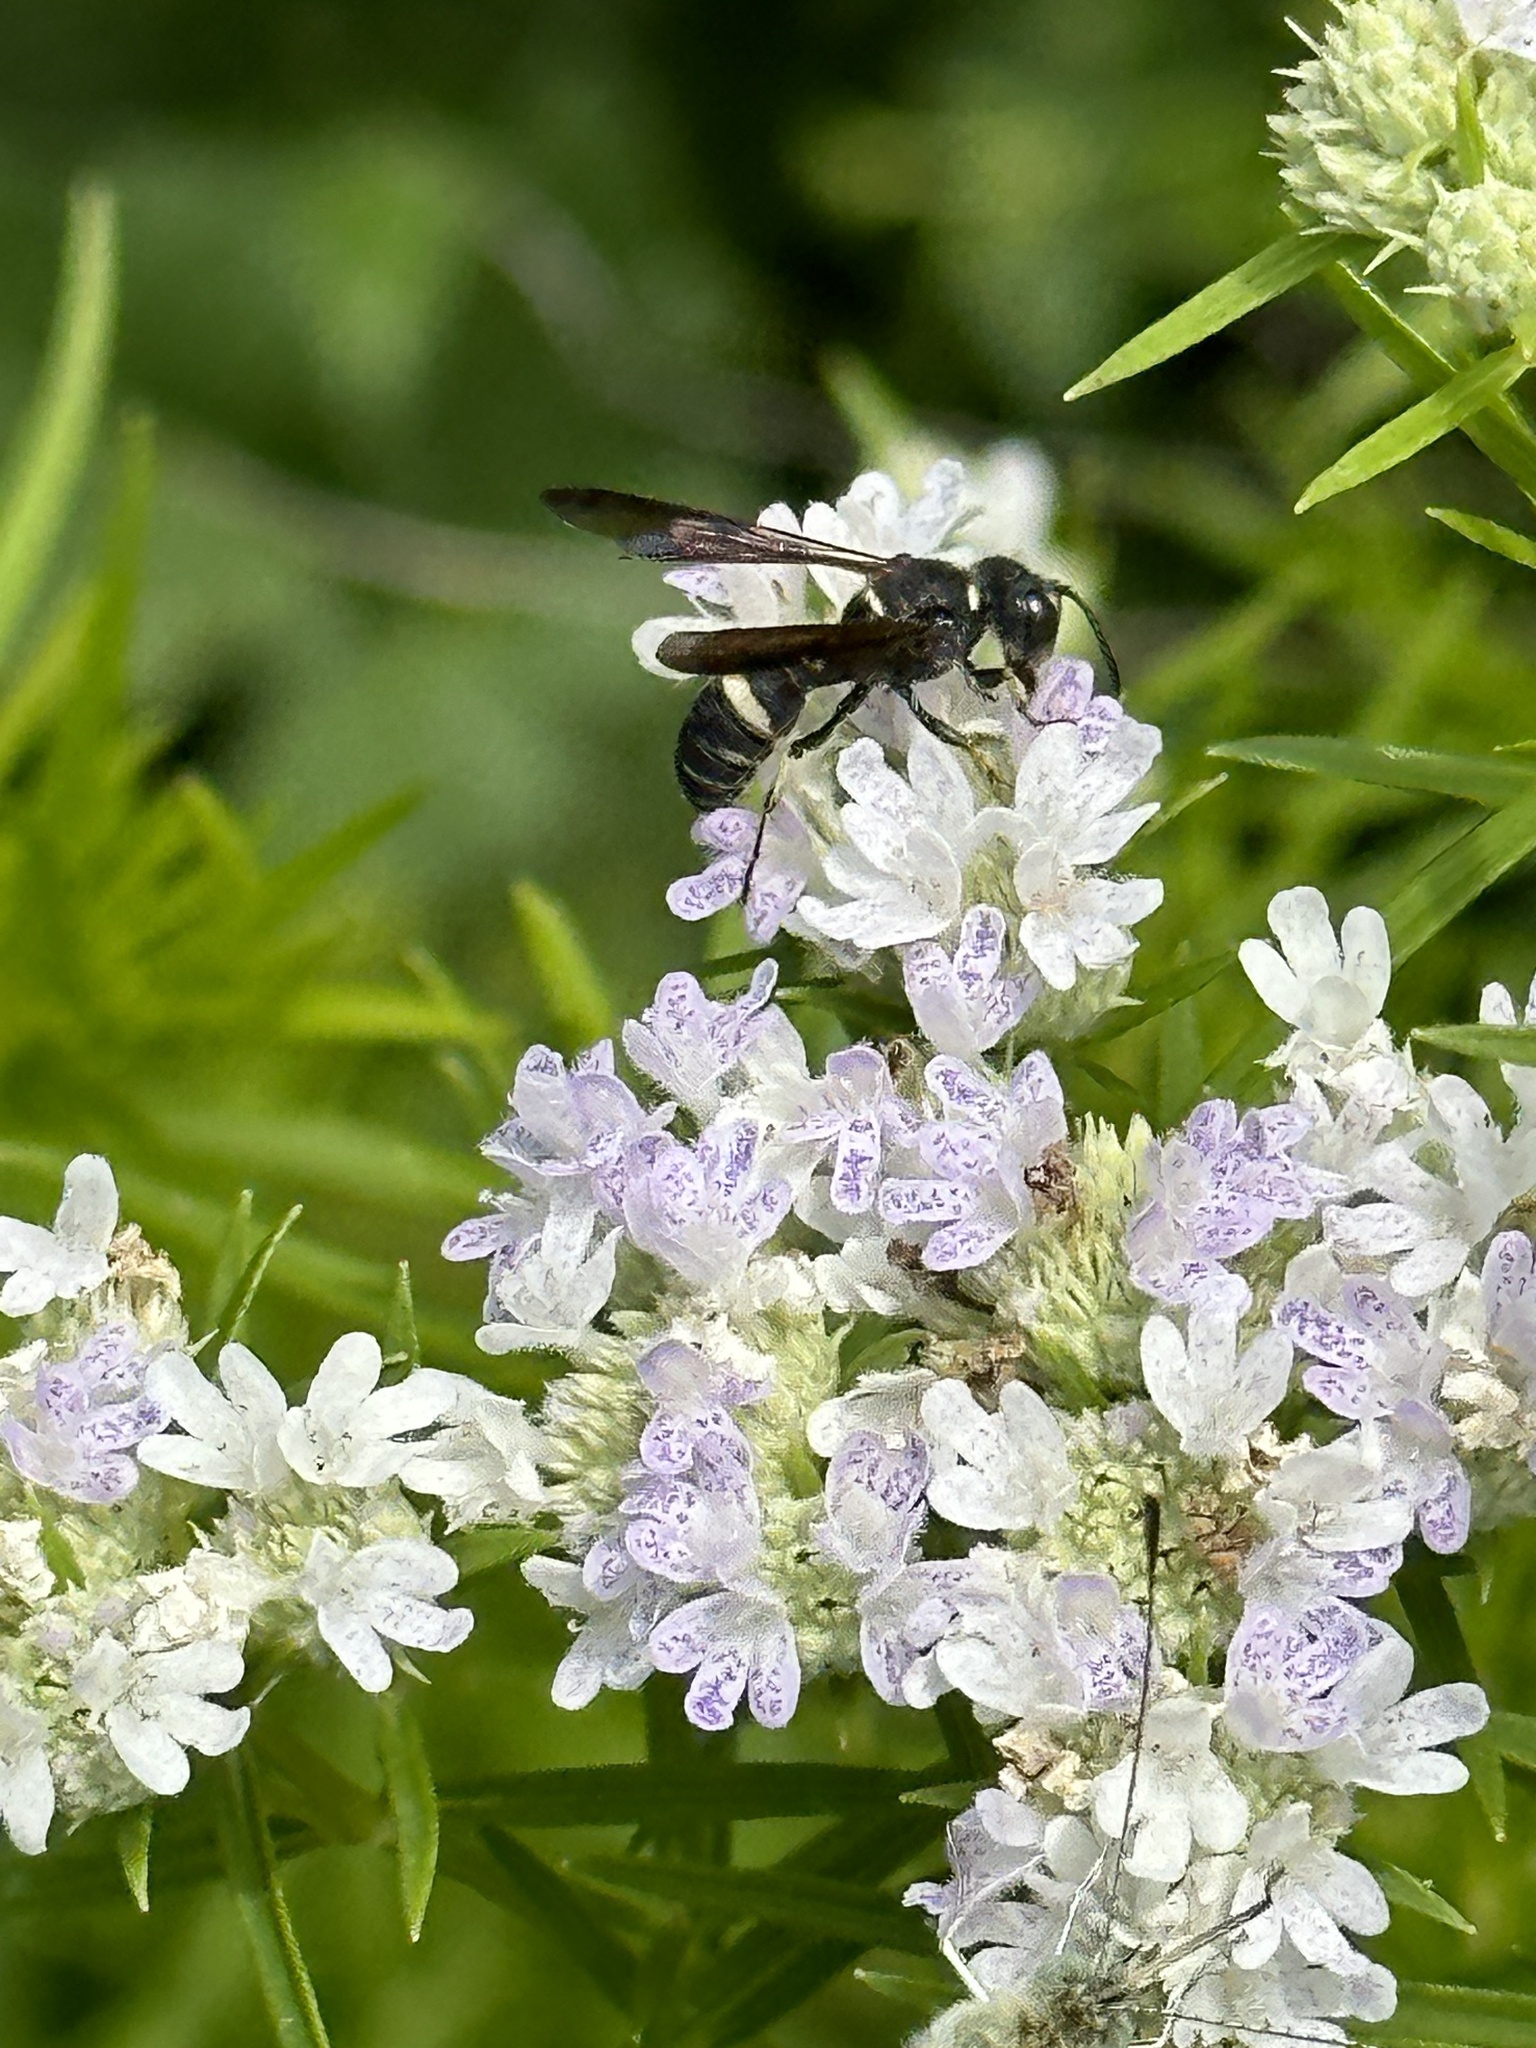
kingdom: Animalia
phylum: Arthropoda
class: Insecta
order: Hymenoptera
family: Crabronidae
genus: Cerceris
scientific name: Cerceris fumipennis
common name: Smokey-winged beetle bandit wasp
